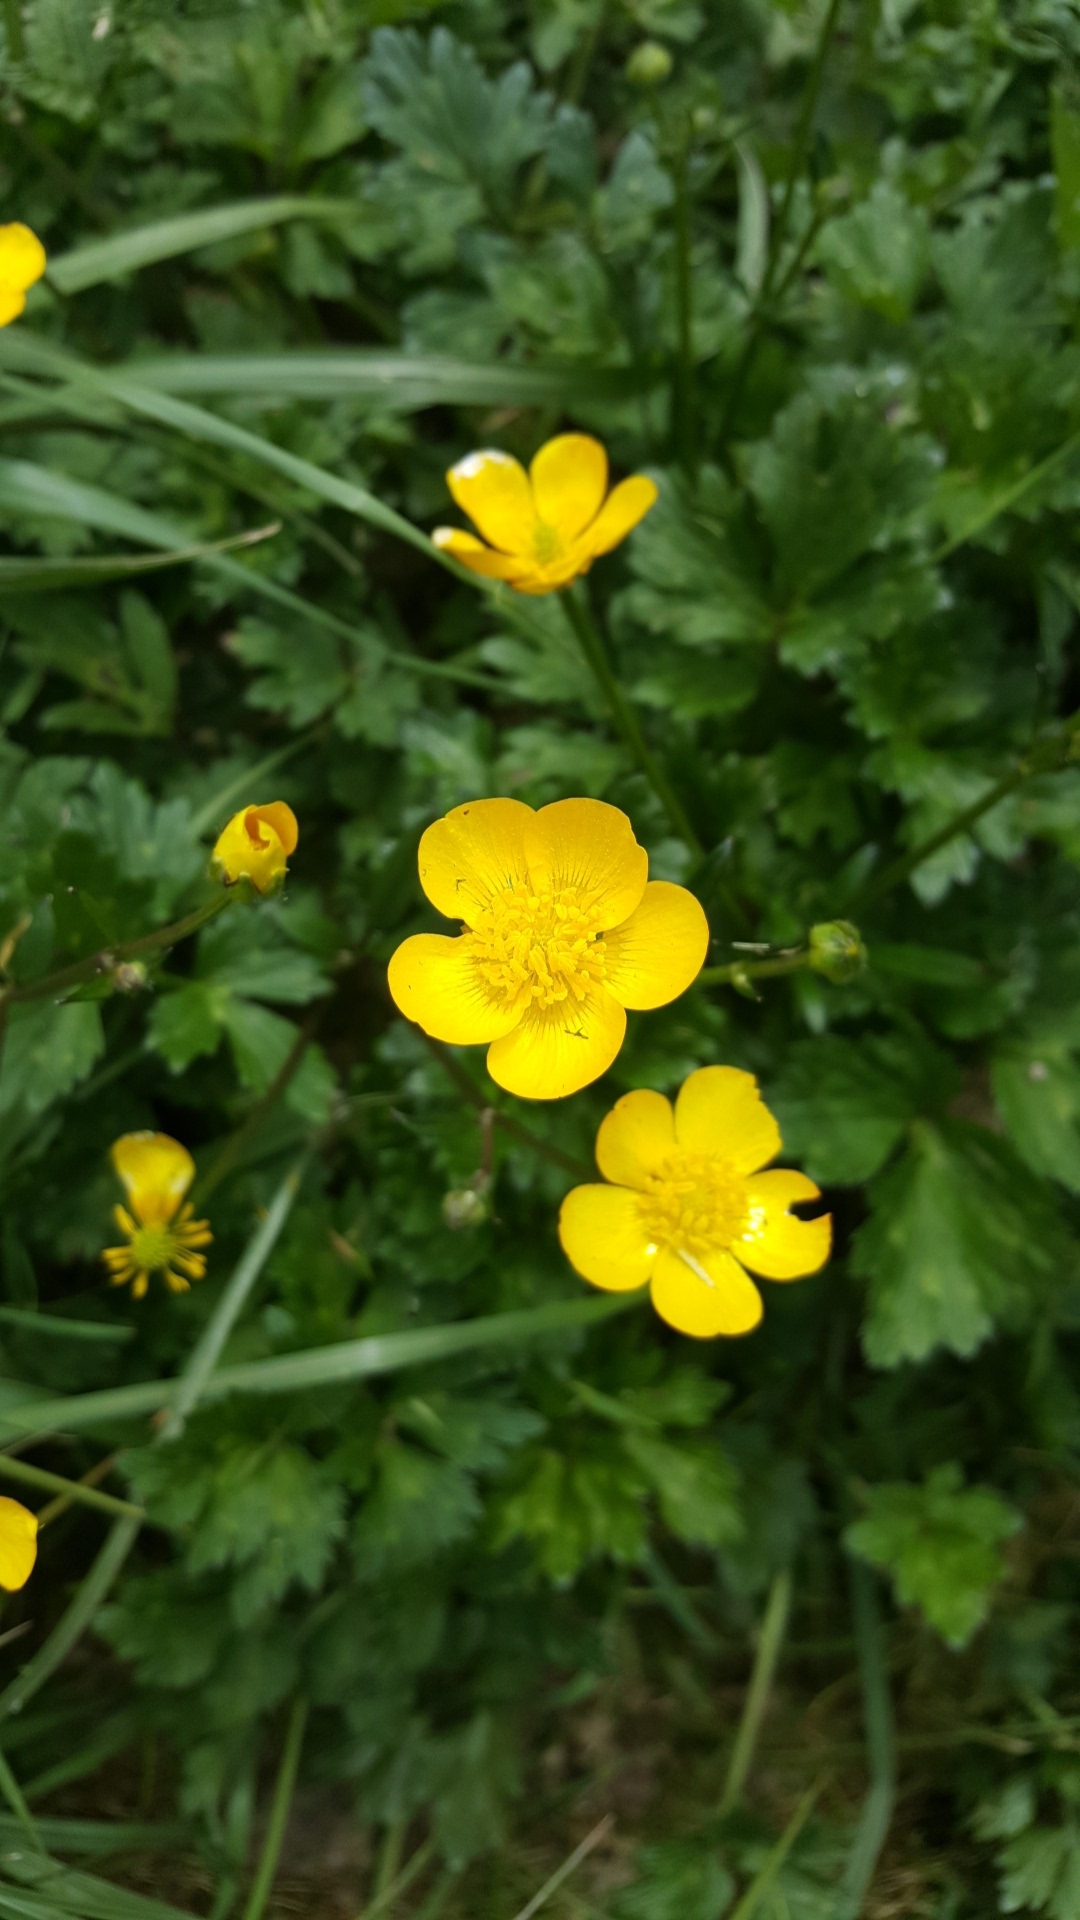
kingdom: Plantae
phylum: Tracheophyta
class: Magnoliopsida
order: Ranunculales
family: Ranunculaceae
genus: Ranunculus
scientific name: Ranunculus repens
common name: Creeping buttercup
